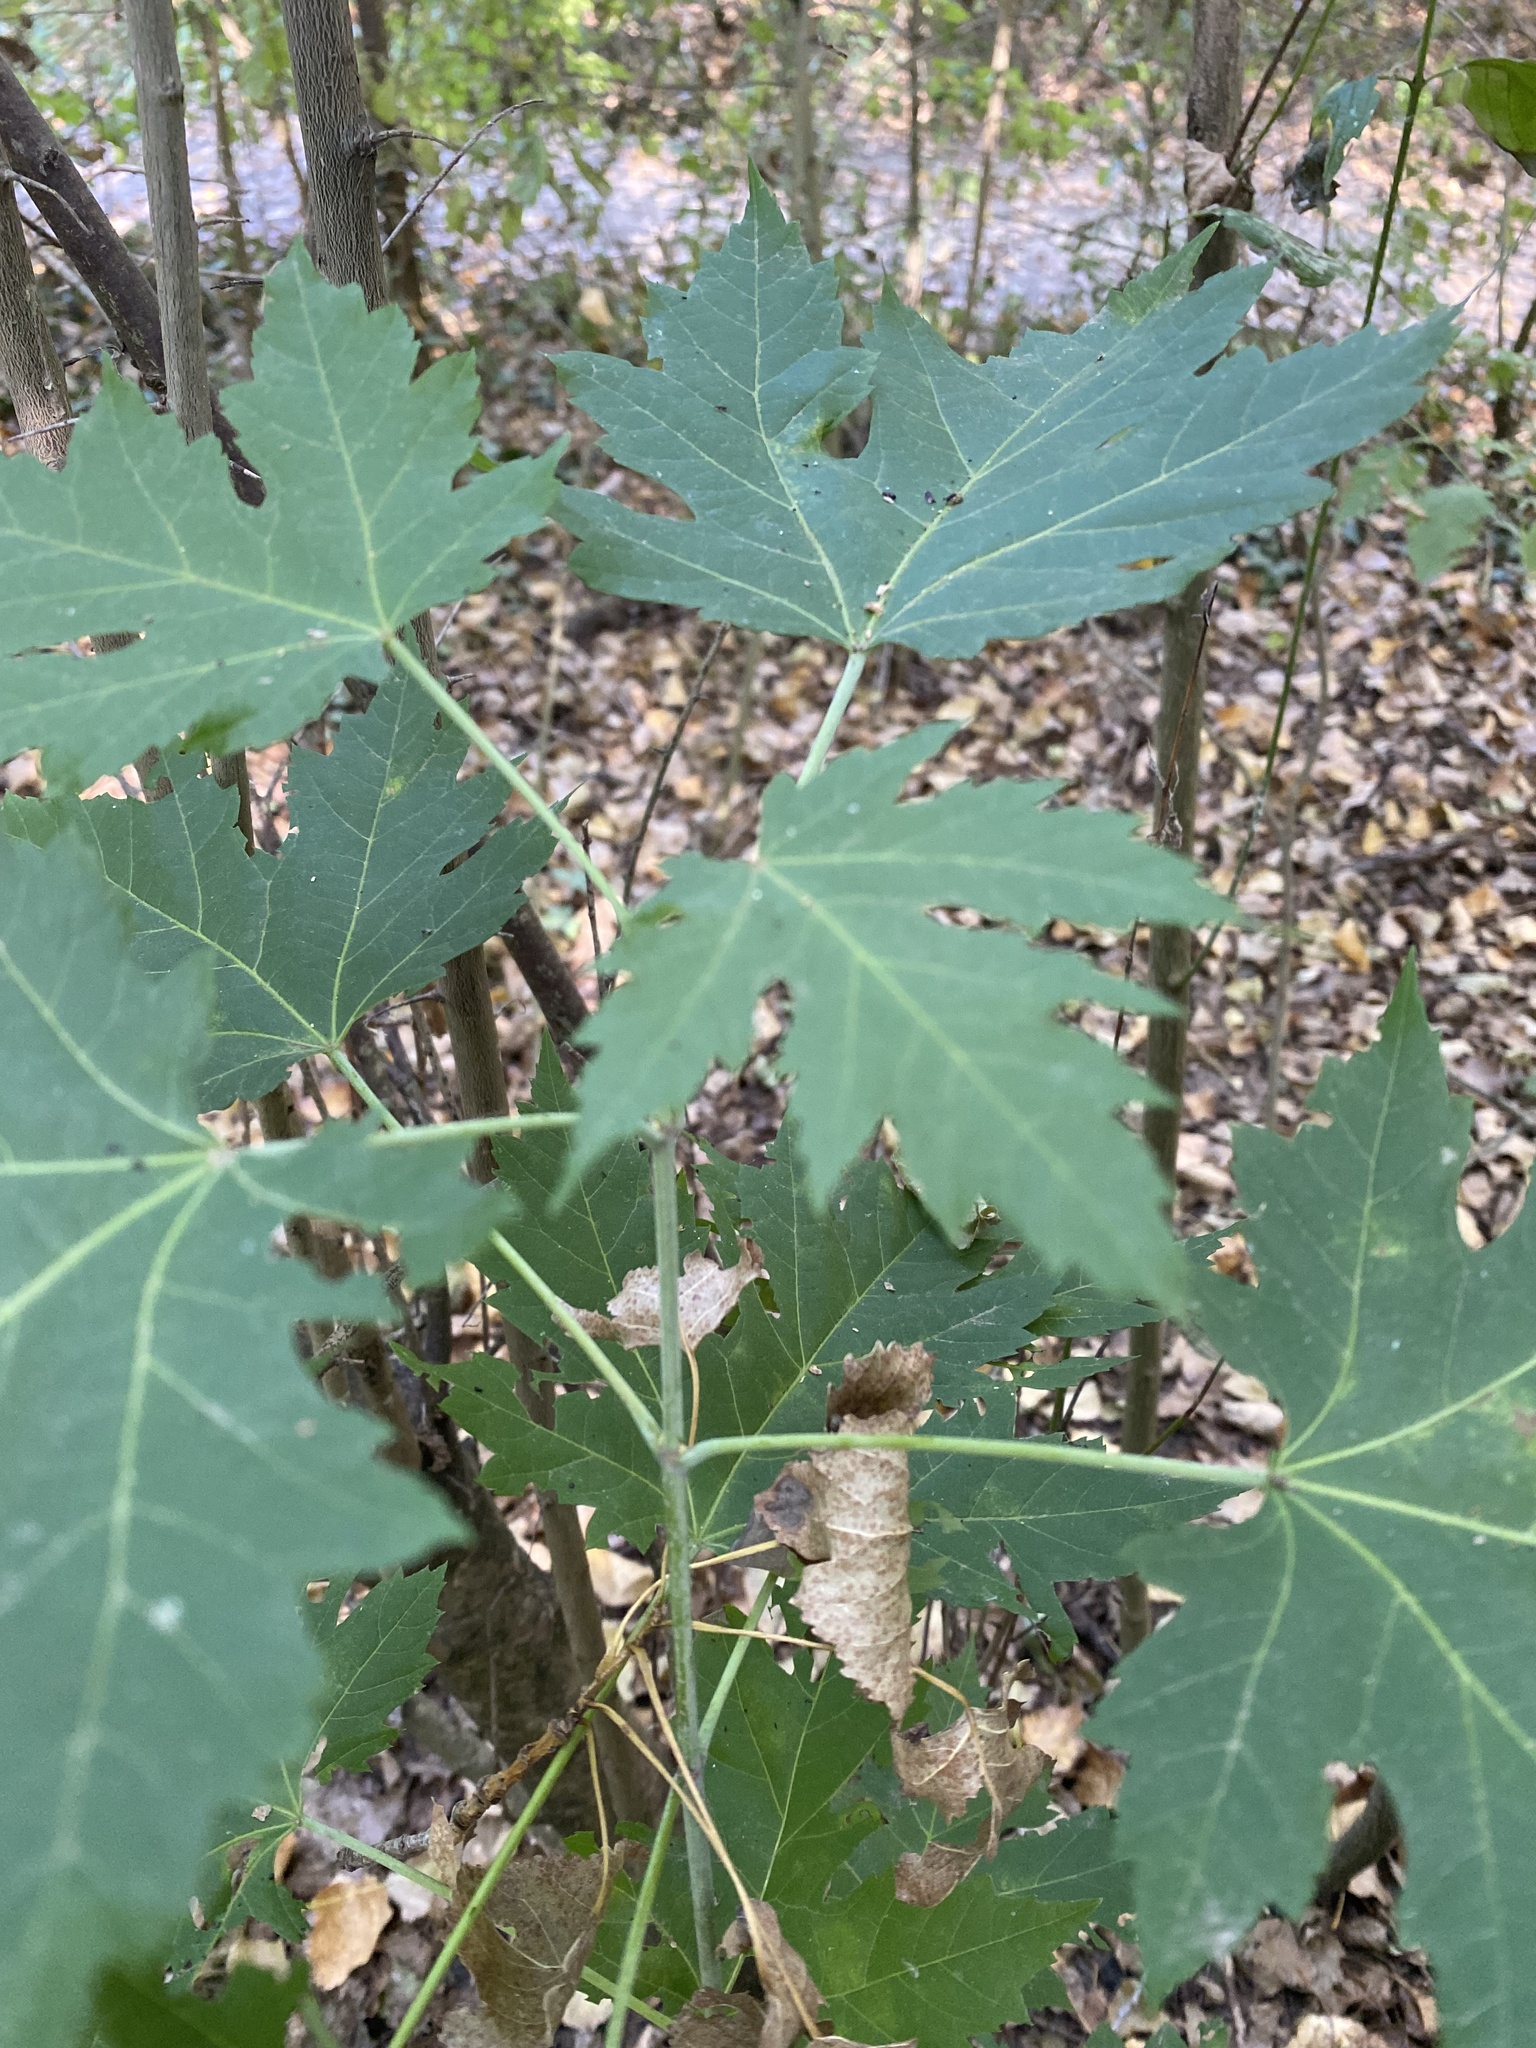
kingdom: Plantae
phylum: Tracheophyta
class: Magnoliopsida
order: Sapindales
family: Sapindaceae
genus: Acer
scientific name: Acer saccharinum
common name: Silver maple
